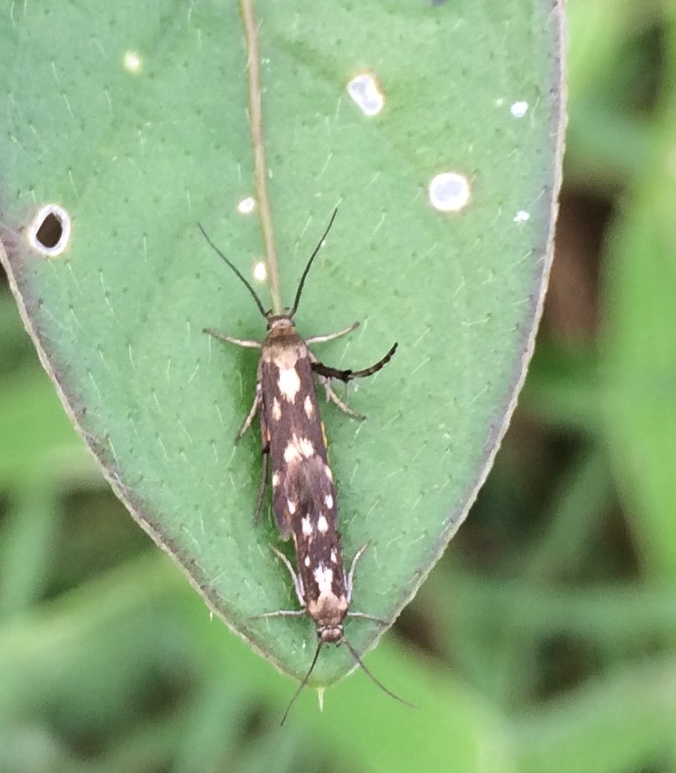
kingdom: Animalia
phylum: Arthropoda
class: Insecta
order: Lepidoptera
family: Scythrididae
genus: Eretmocera
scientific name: Eretmocera impactella
